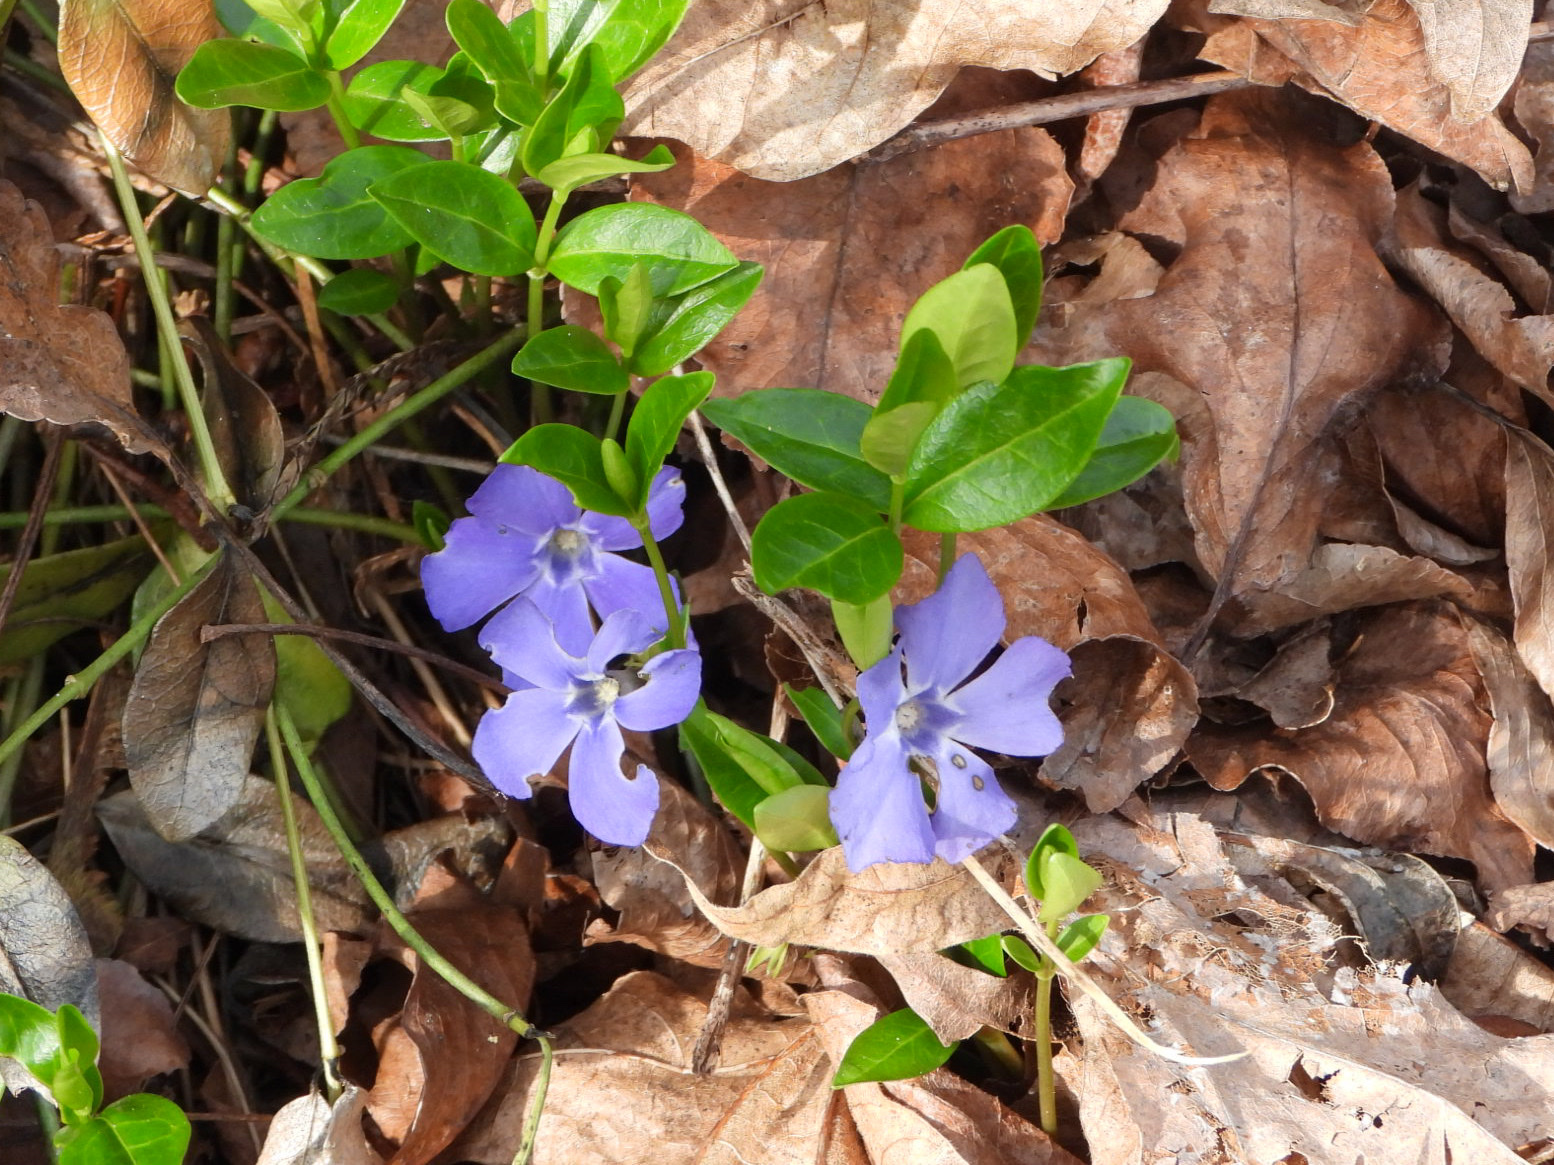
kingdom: Plantae
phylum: Tracheophyta
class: Magnoliopsida
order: Gentianales
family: Apocynaceae
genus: Vinca
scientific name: Vinca minor
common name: Lesser periwinkle
